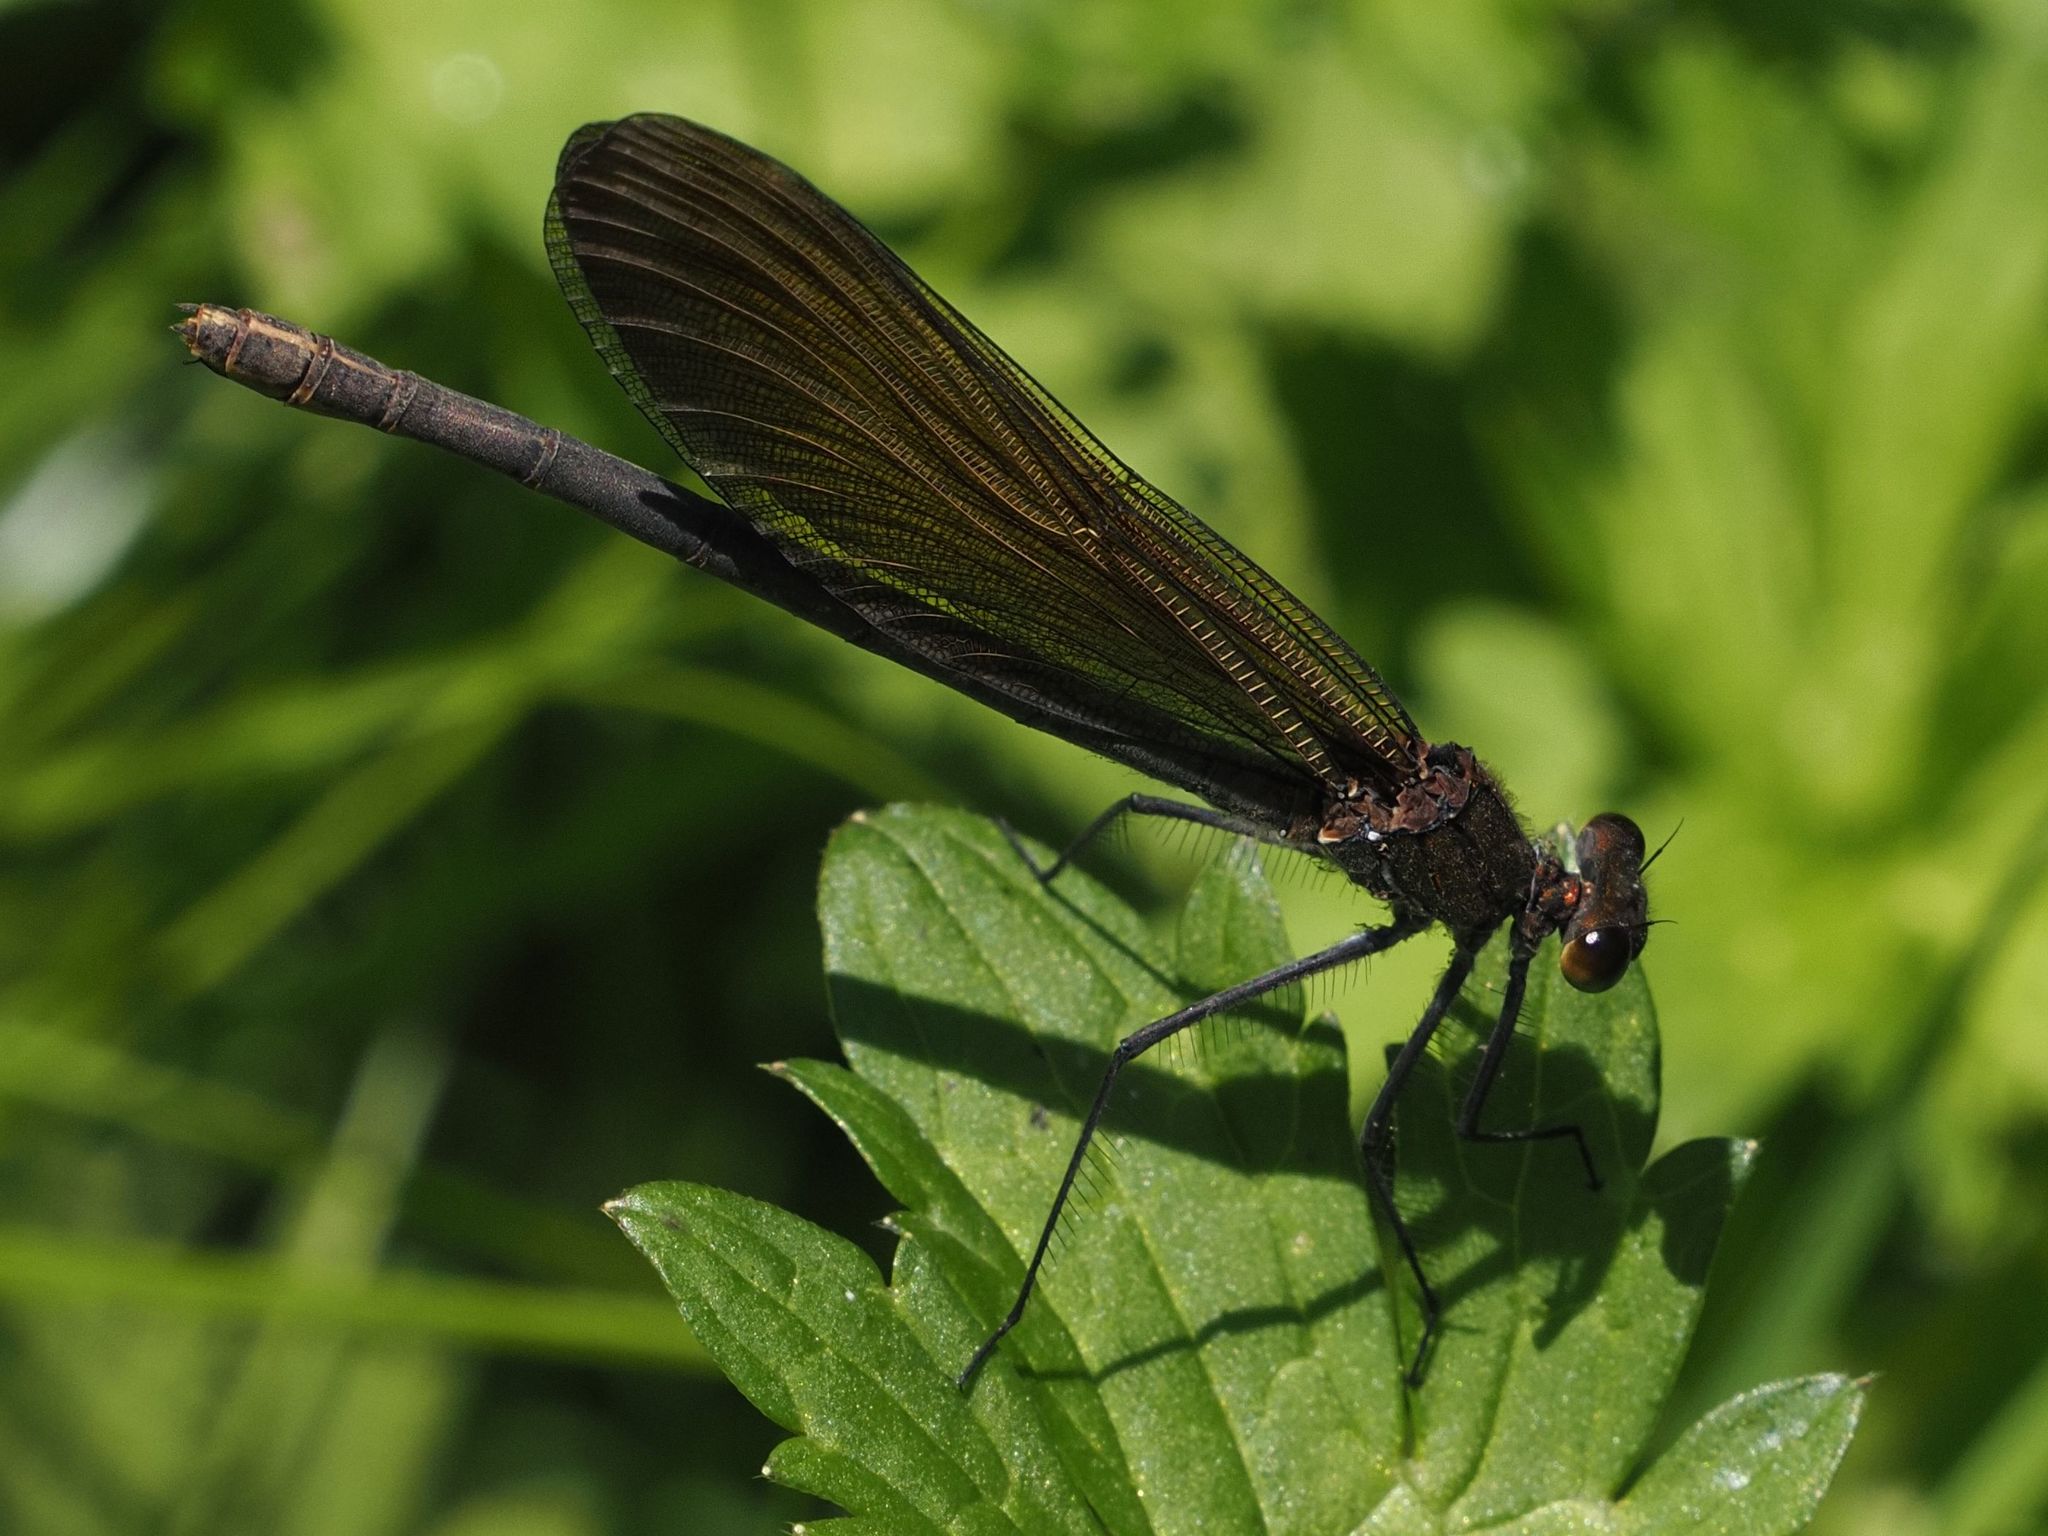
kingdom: Animalia
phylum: Arthropoda
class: Insecta
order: Odonata
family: Calopterygidae
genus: Calopteryx
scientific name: Calopteryx virgo
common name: Beautiful demoiselle
